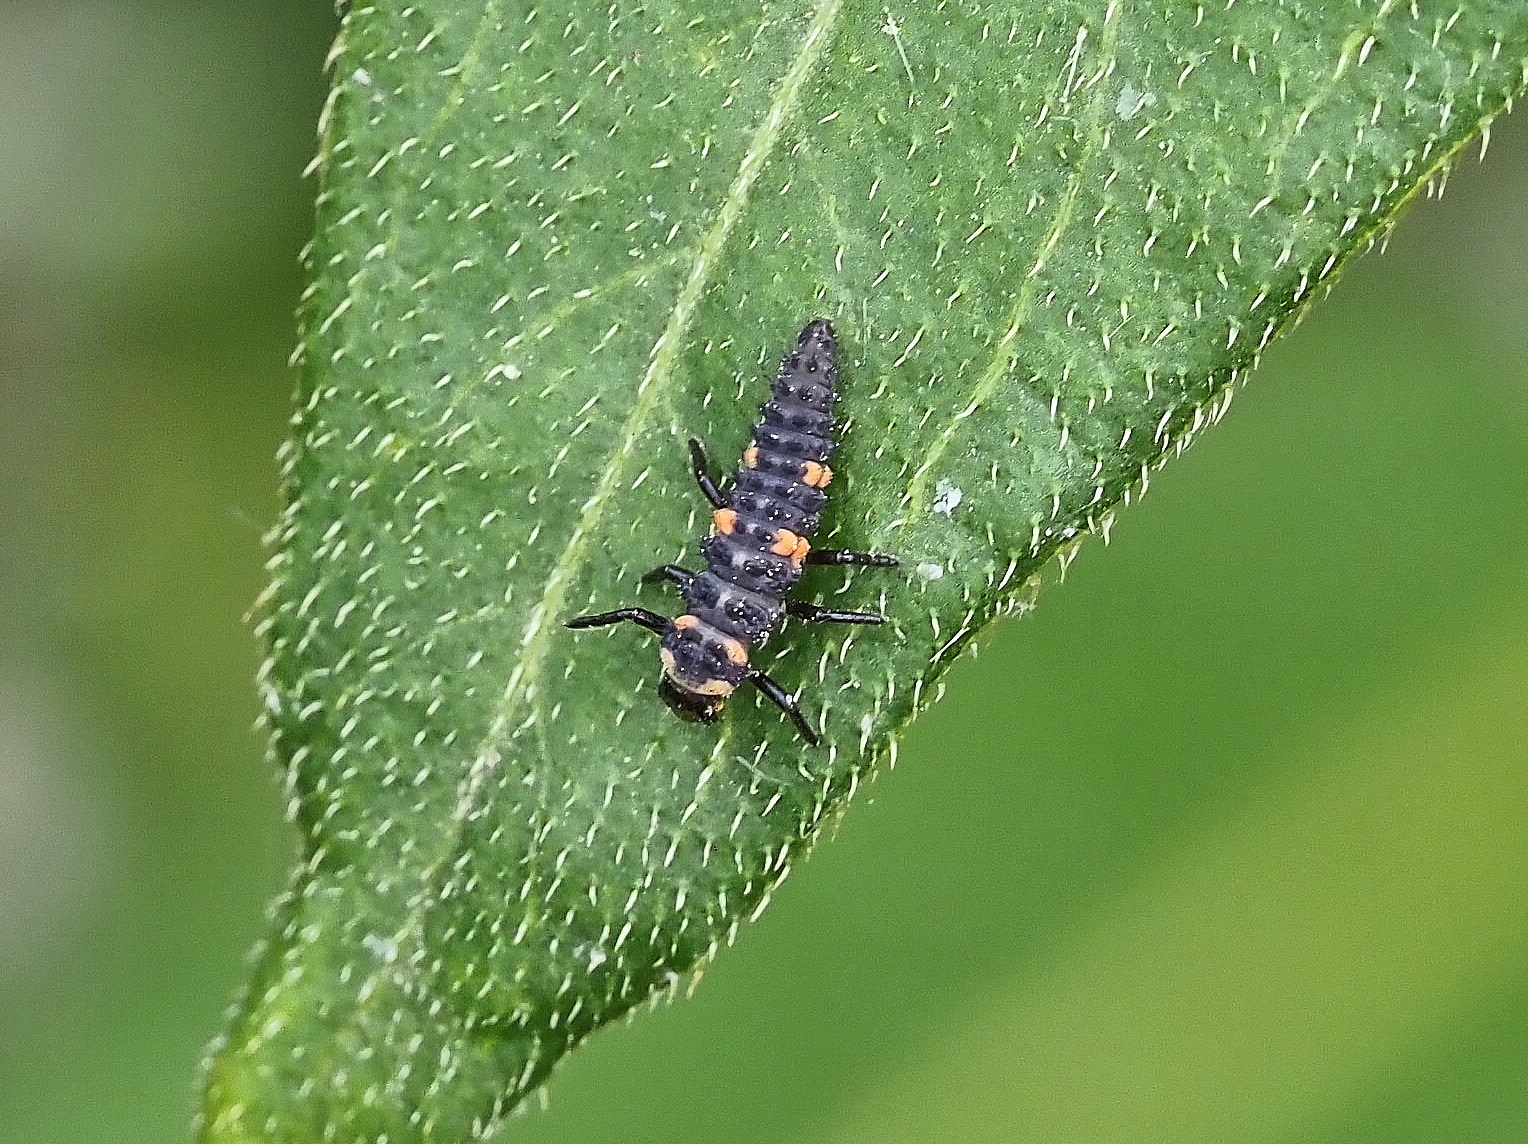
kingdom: Animalia
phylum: Arthropoda
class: Insecta
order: Coleoptera
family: Coccinellidae
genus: Coccinella
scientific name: Coccinella septempunctata
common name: Sevenspotted lady beetle
